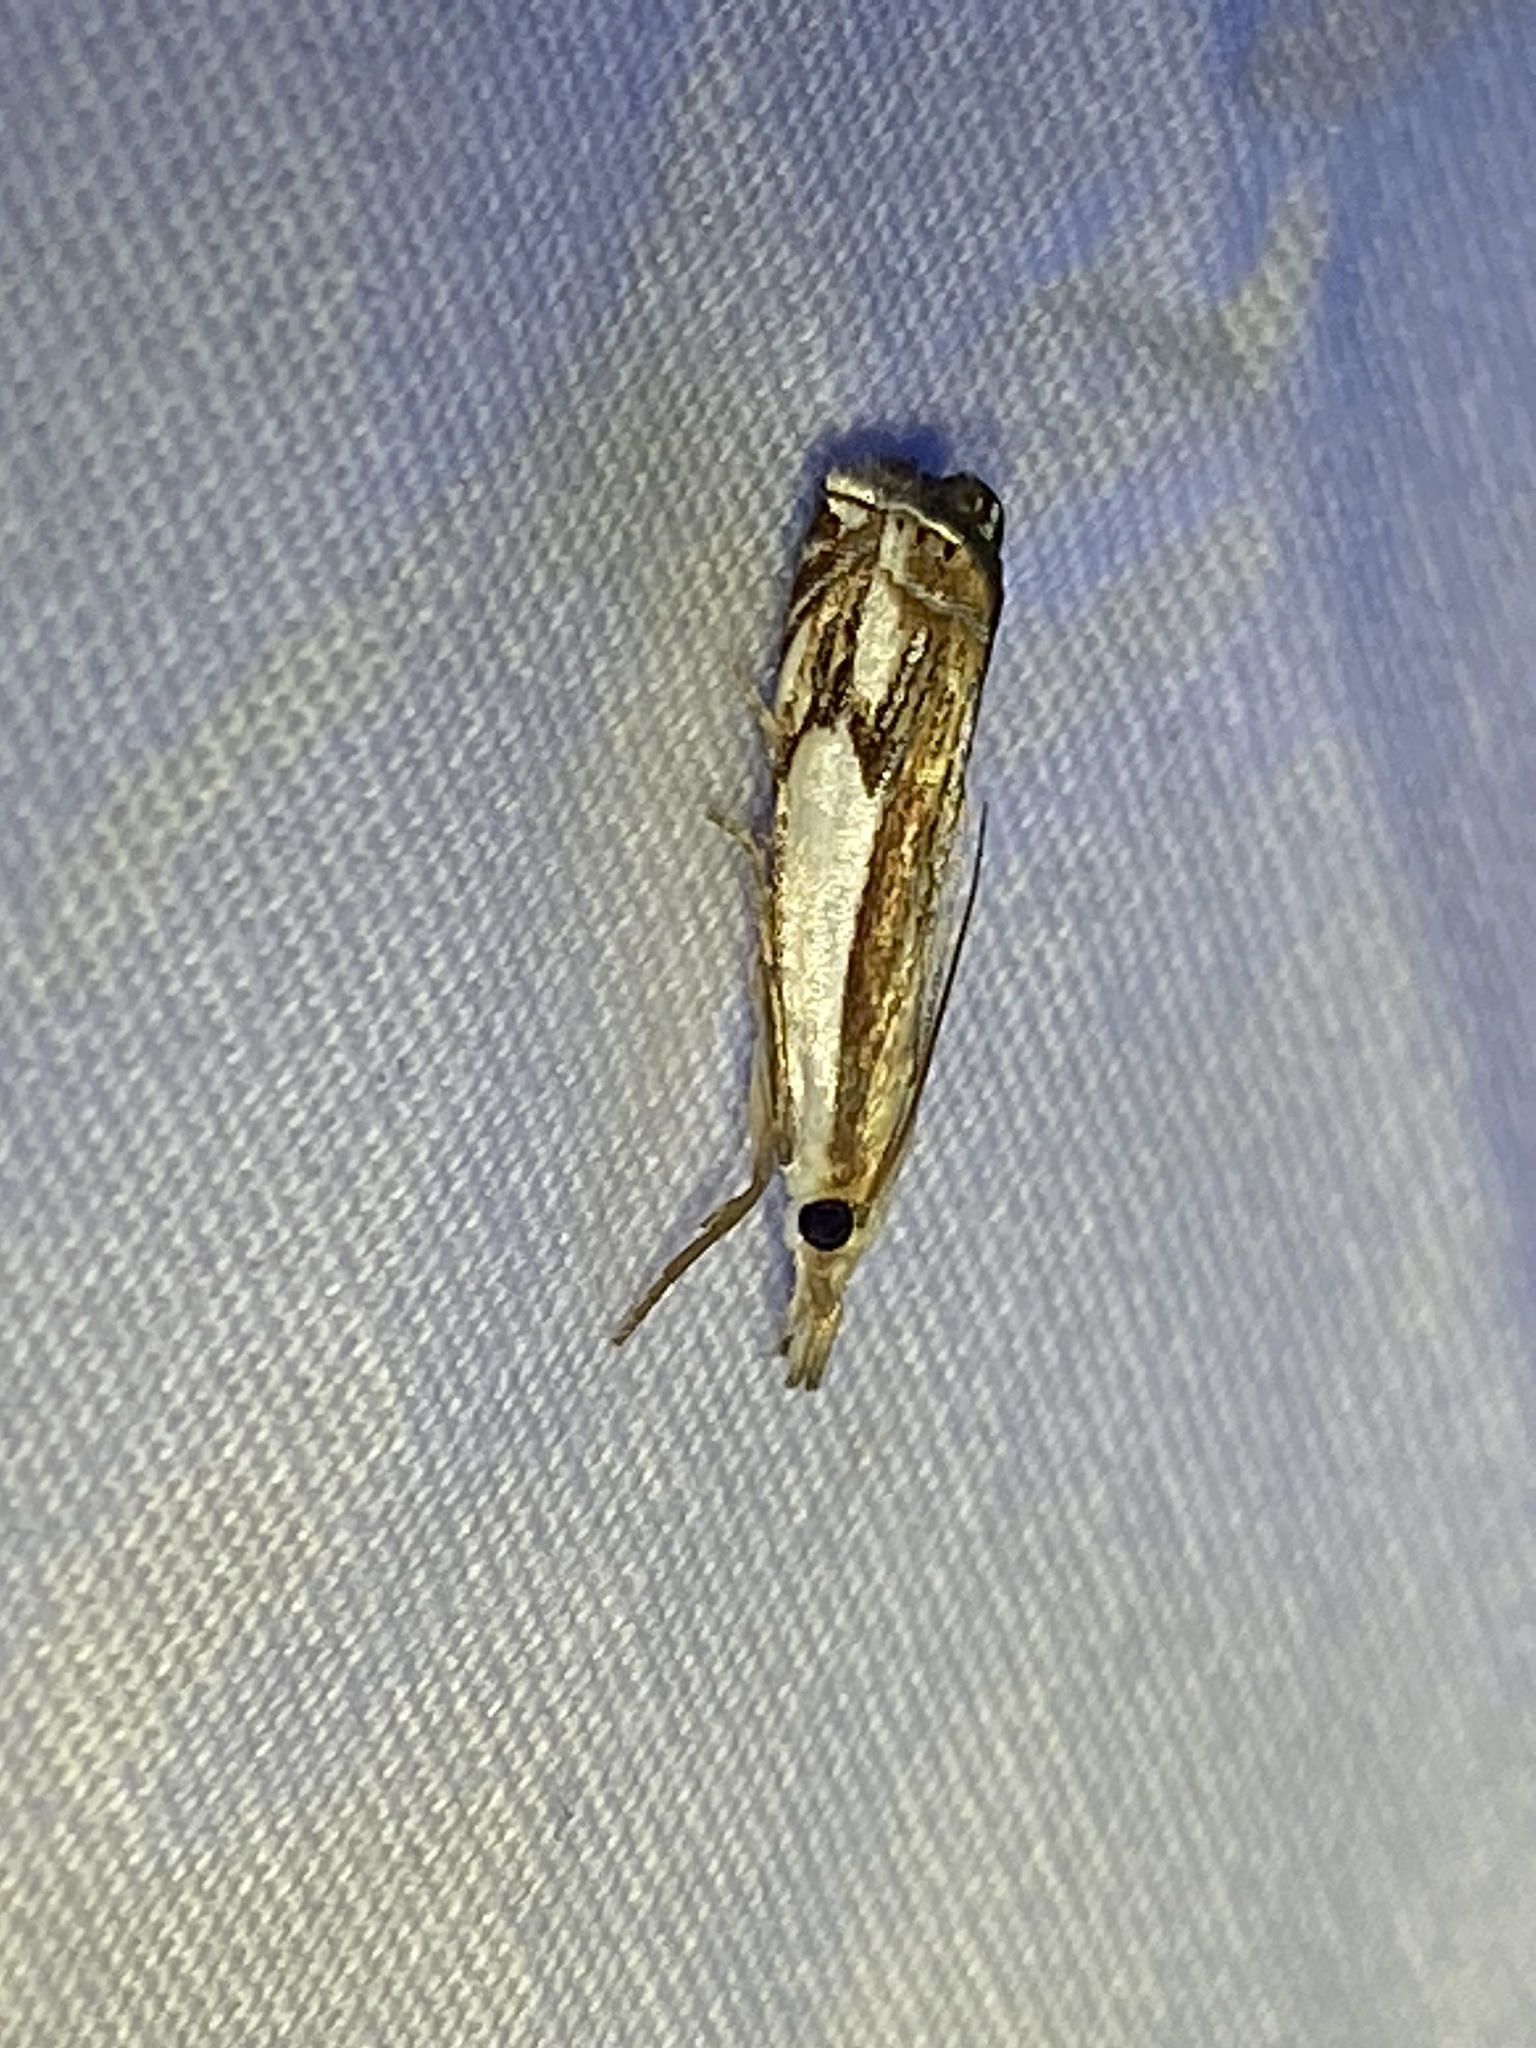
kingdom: Animalia
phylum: Arthropoda
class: Insecta
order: Lepidoptera
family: Crambidae
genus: Crambus
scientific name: Crambus agitatellus
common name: Double-banded grass-veneer
